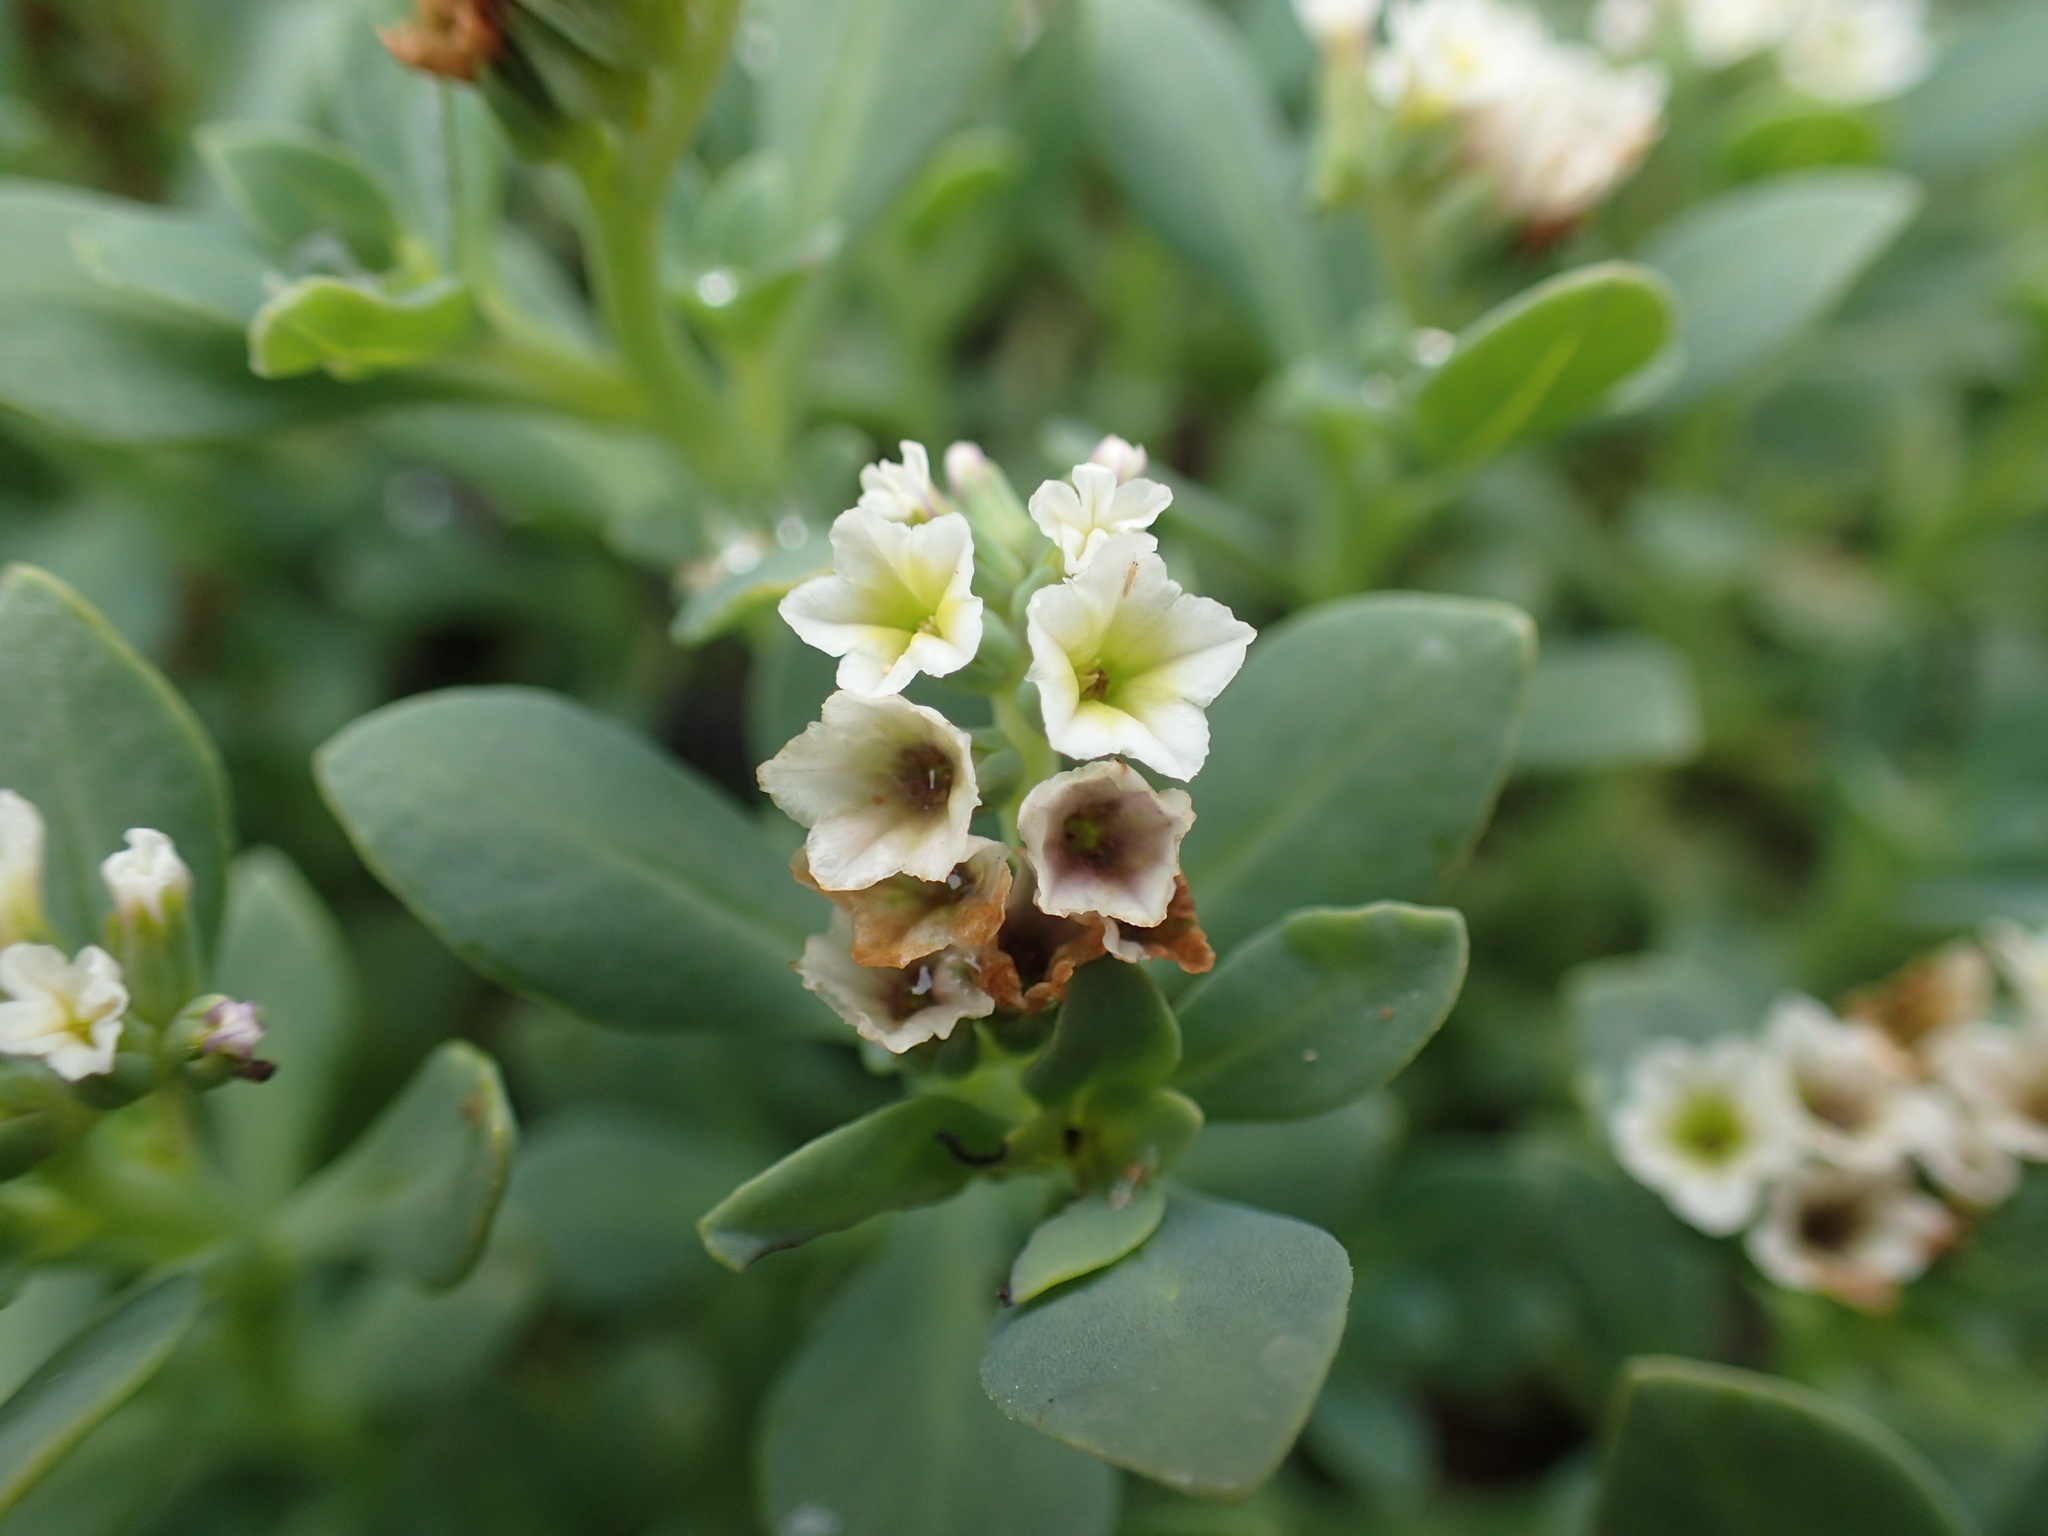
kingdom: Plantae
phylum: Tracheophyta
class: Magnoliopsida
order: Boraginales
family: Heliotropiaceae
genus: Heliotropium
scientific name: Heliotropium curassavicum
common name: Seaside heliotrope
